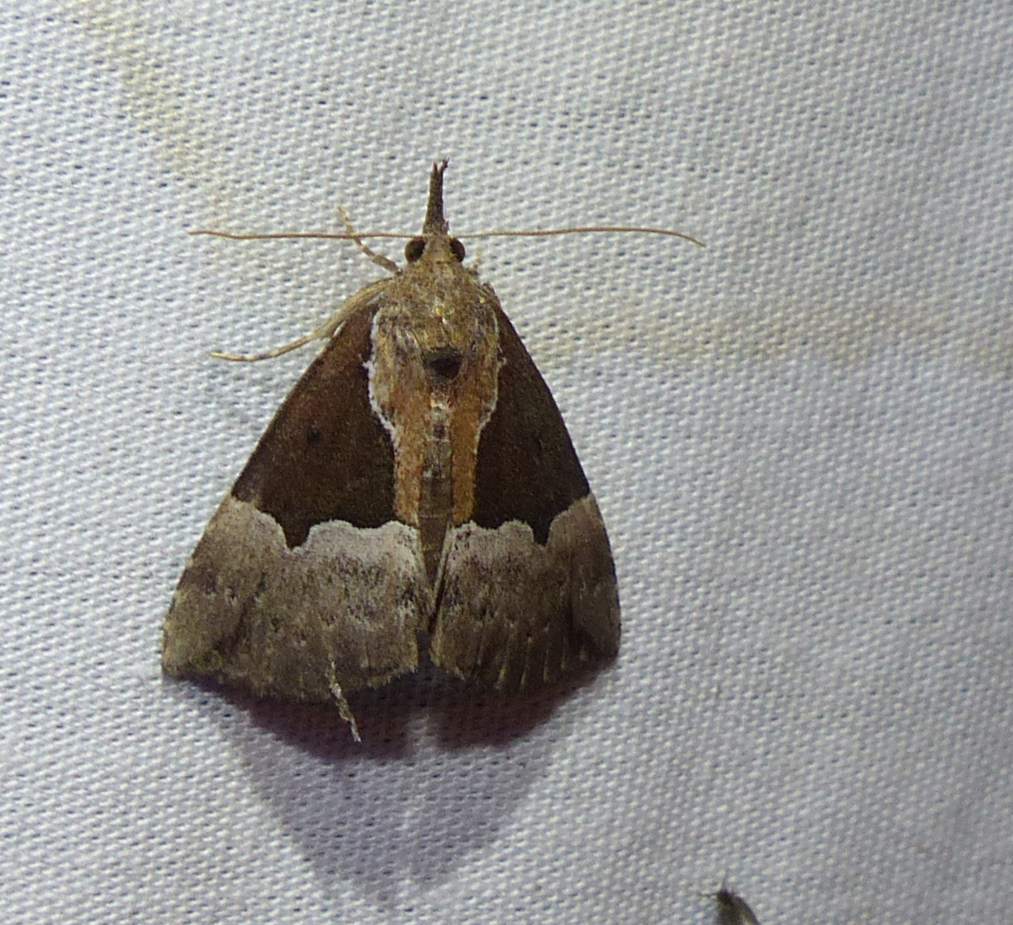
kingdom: Animalia
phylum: Arthropoda
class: Insecta
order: Lepidoptera
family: Erebidae
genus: Hypena
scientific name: Hypena bijugalis
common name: Dimorphic bomolocha moth
